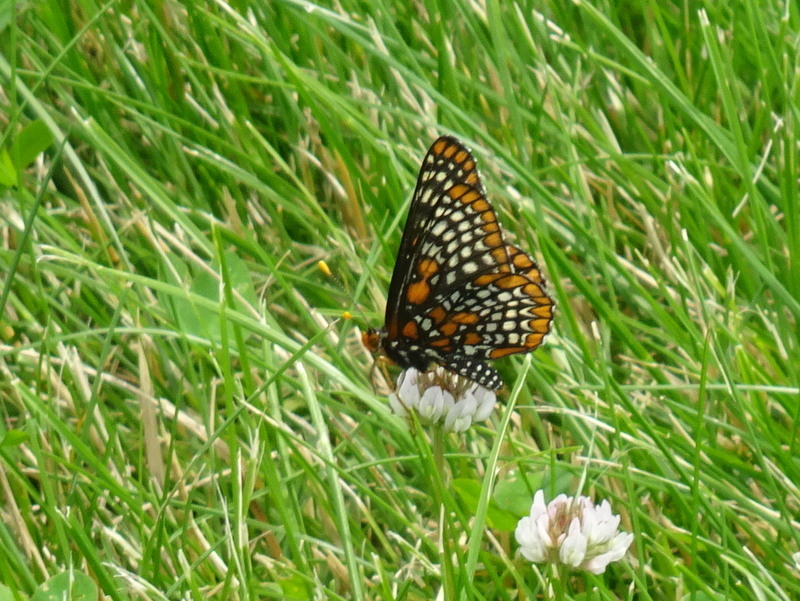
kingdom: Animalia
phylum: Arthropoda
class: Insecta
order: Lepidoptera
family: Nymphalidae
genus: Euphydryas
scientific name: Euphydryas phaeton
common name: Baltimore checkerspot
